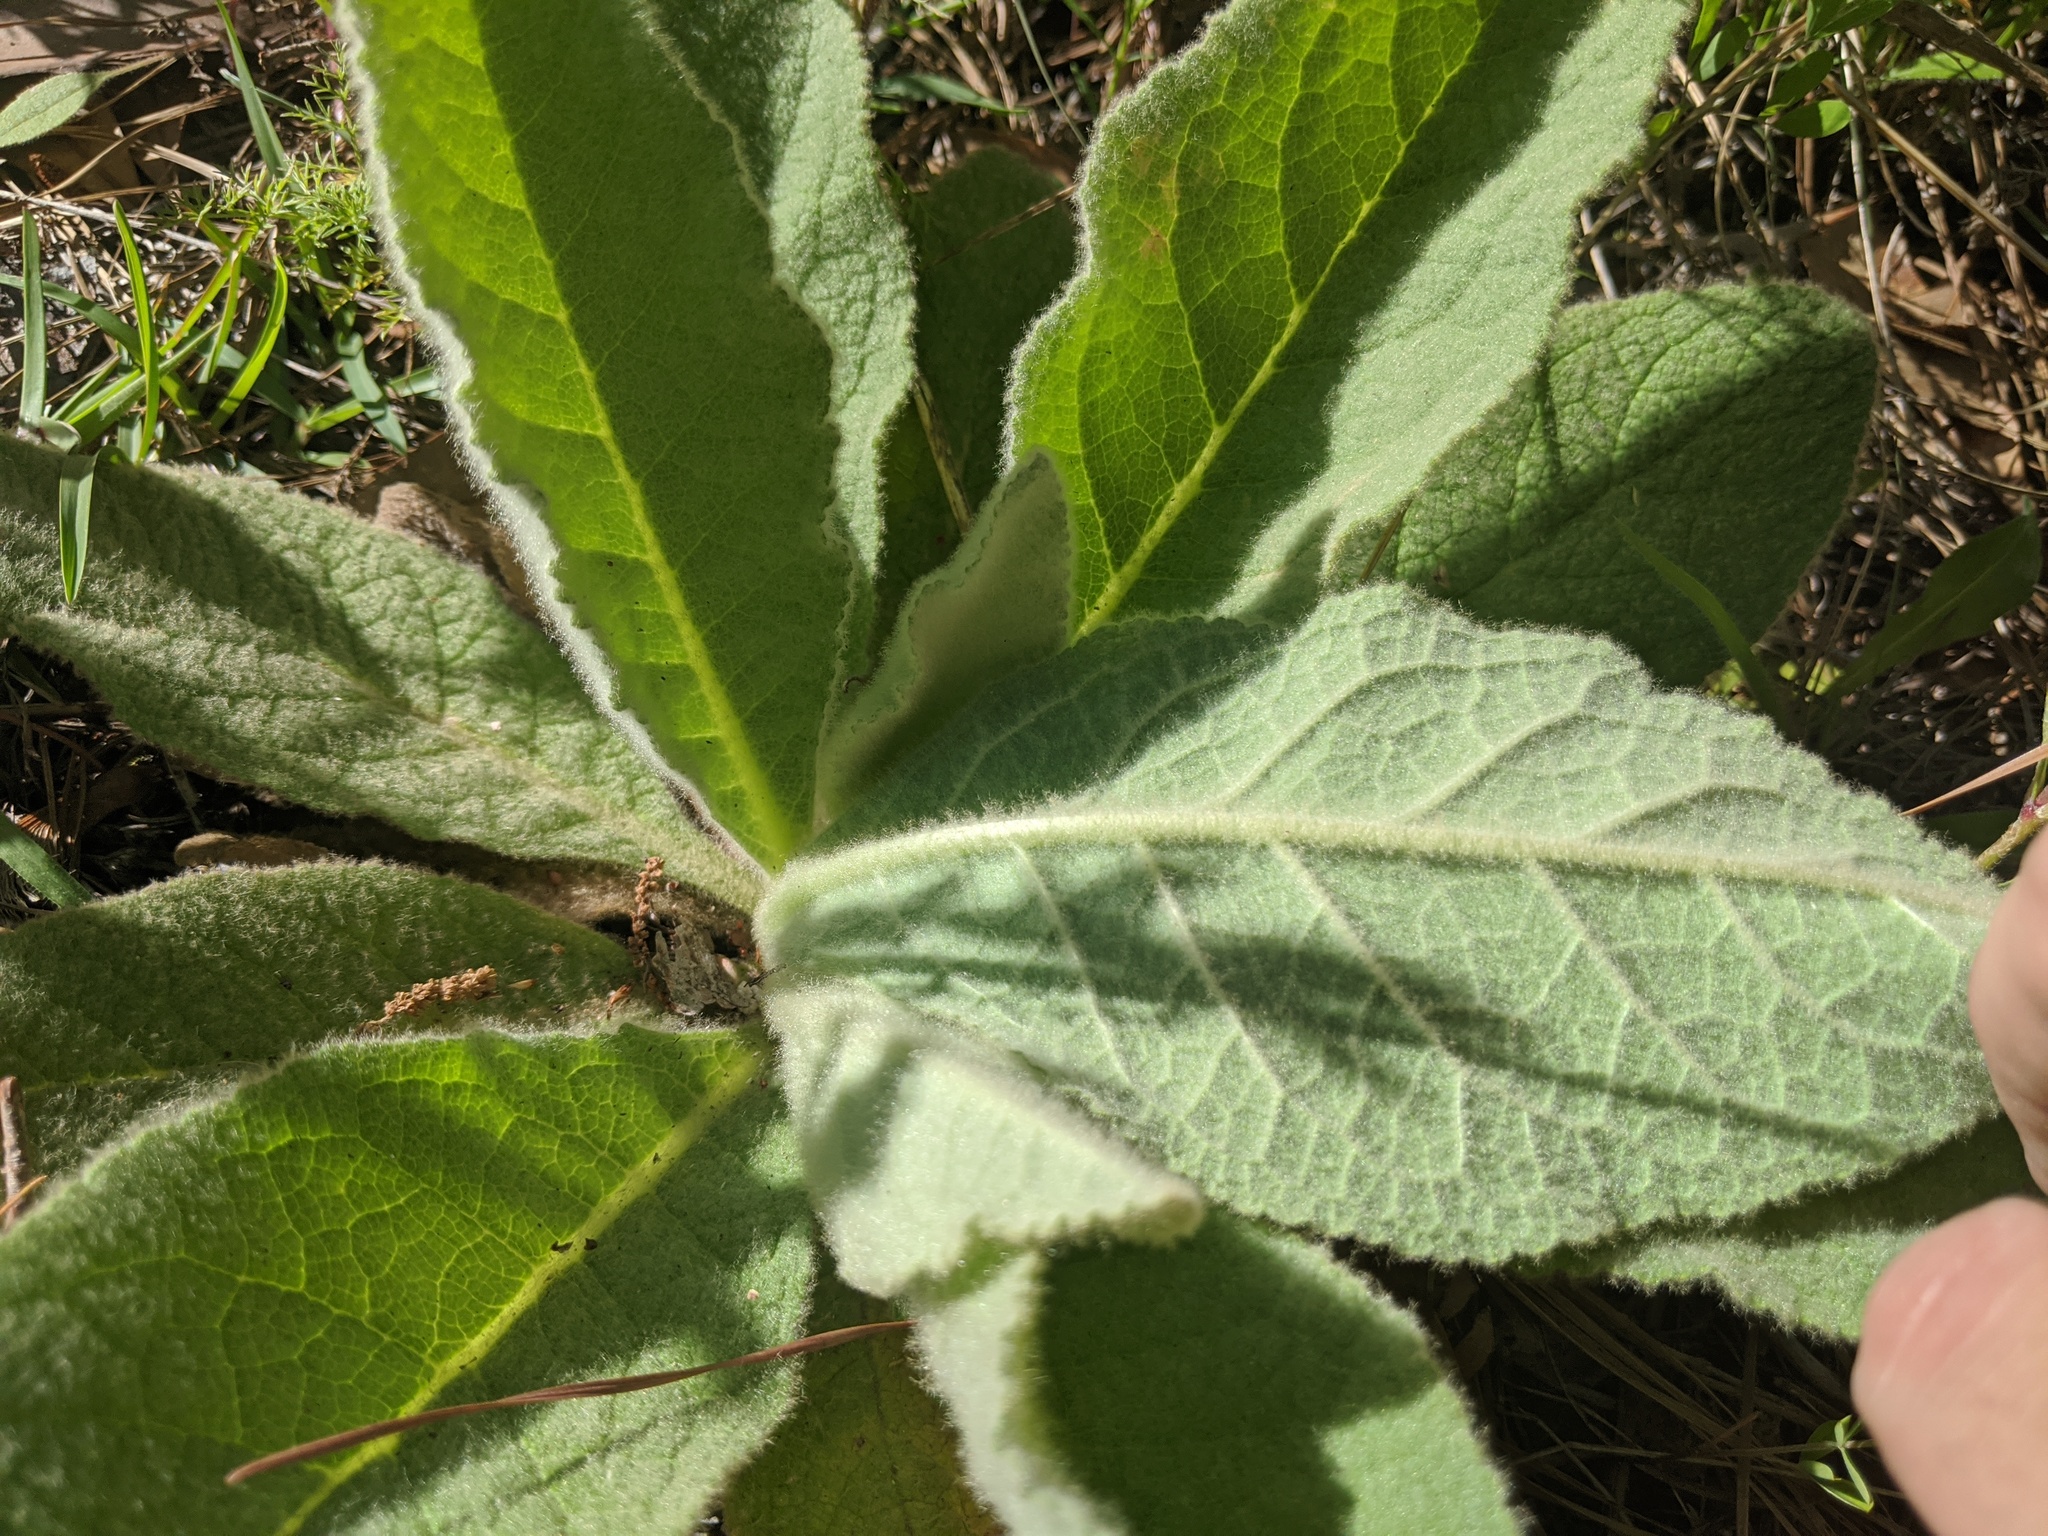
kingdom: Plantae
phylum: Tracheophyta
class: Magnoliopsida
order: Lamiales
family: Scrophulariaceae
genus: Verbascum
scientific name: Verbascum thapsus
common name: Common mullein
